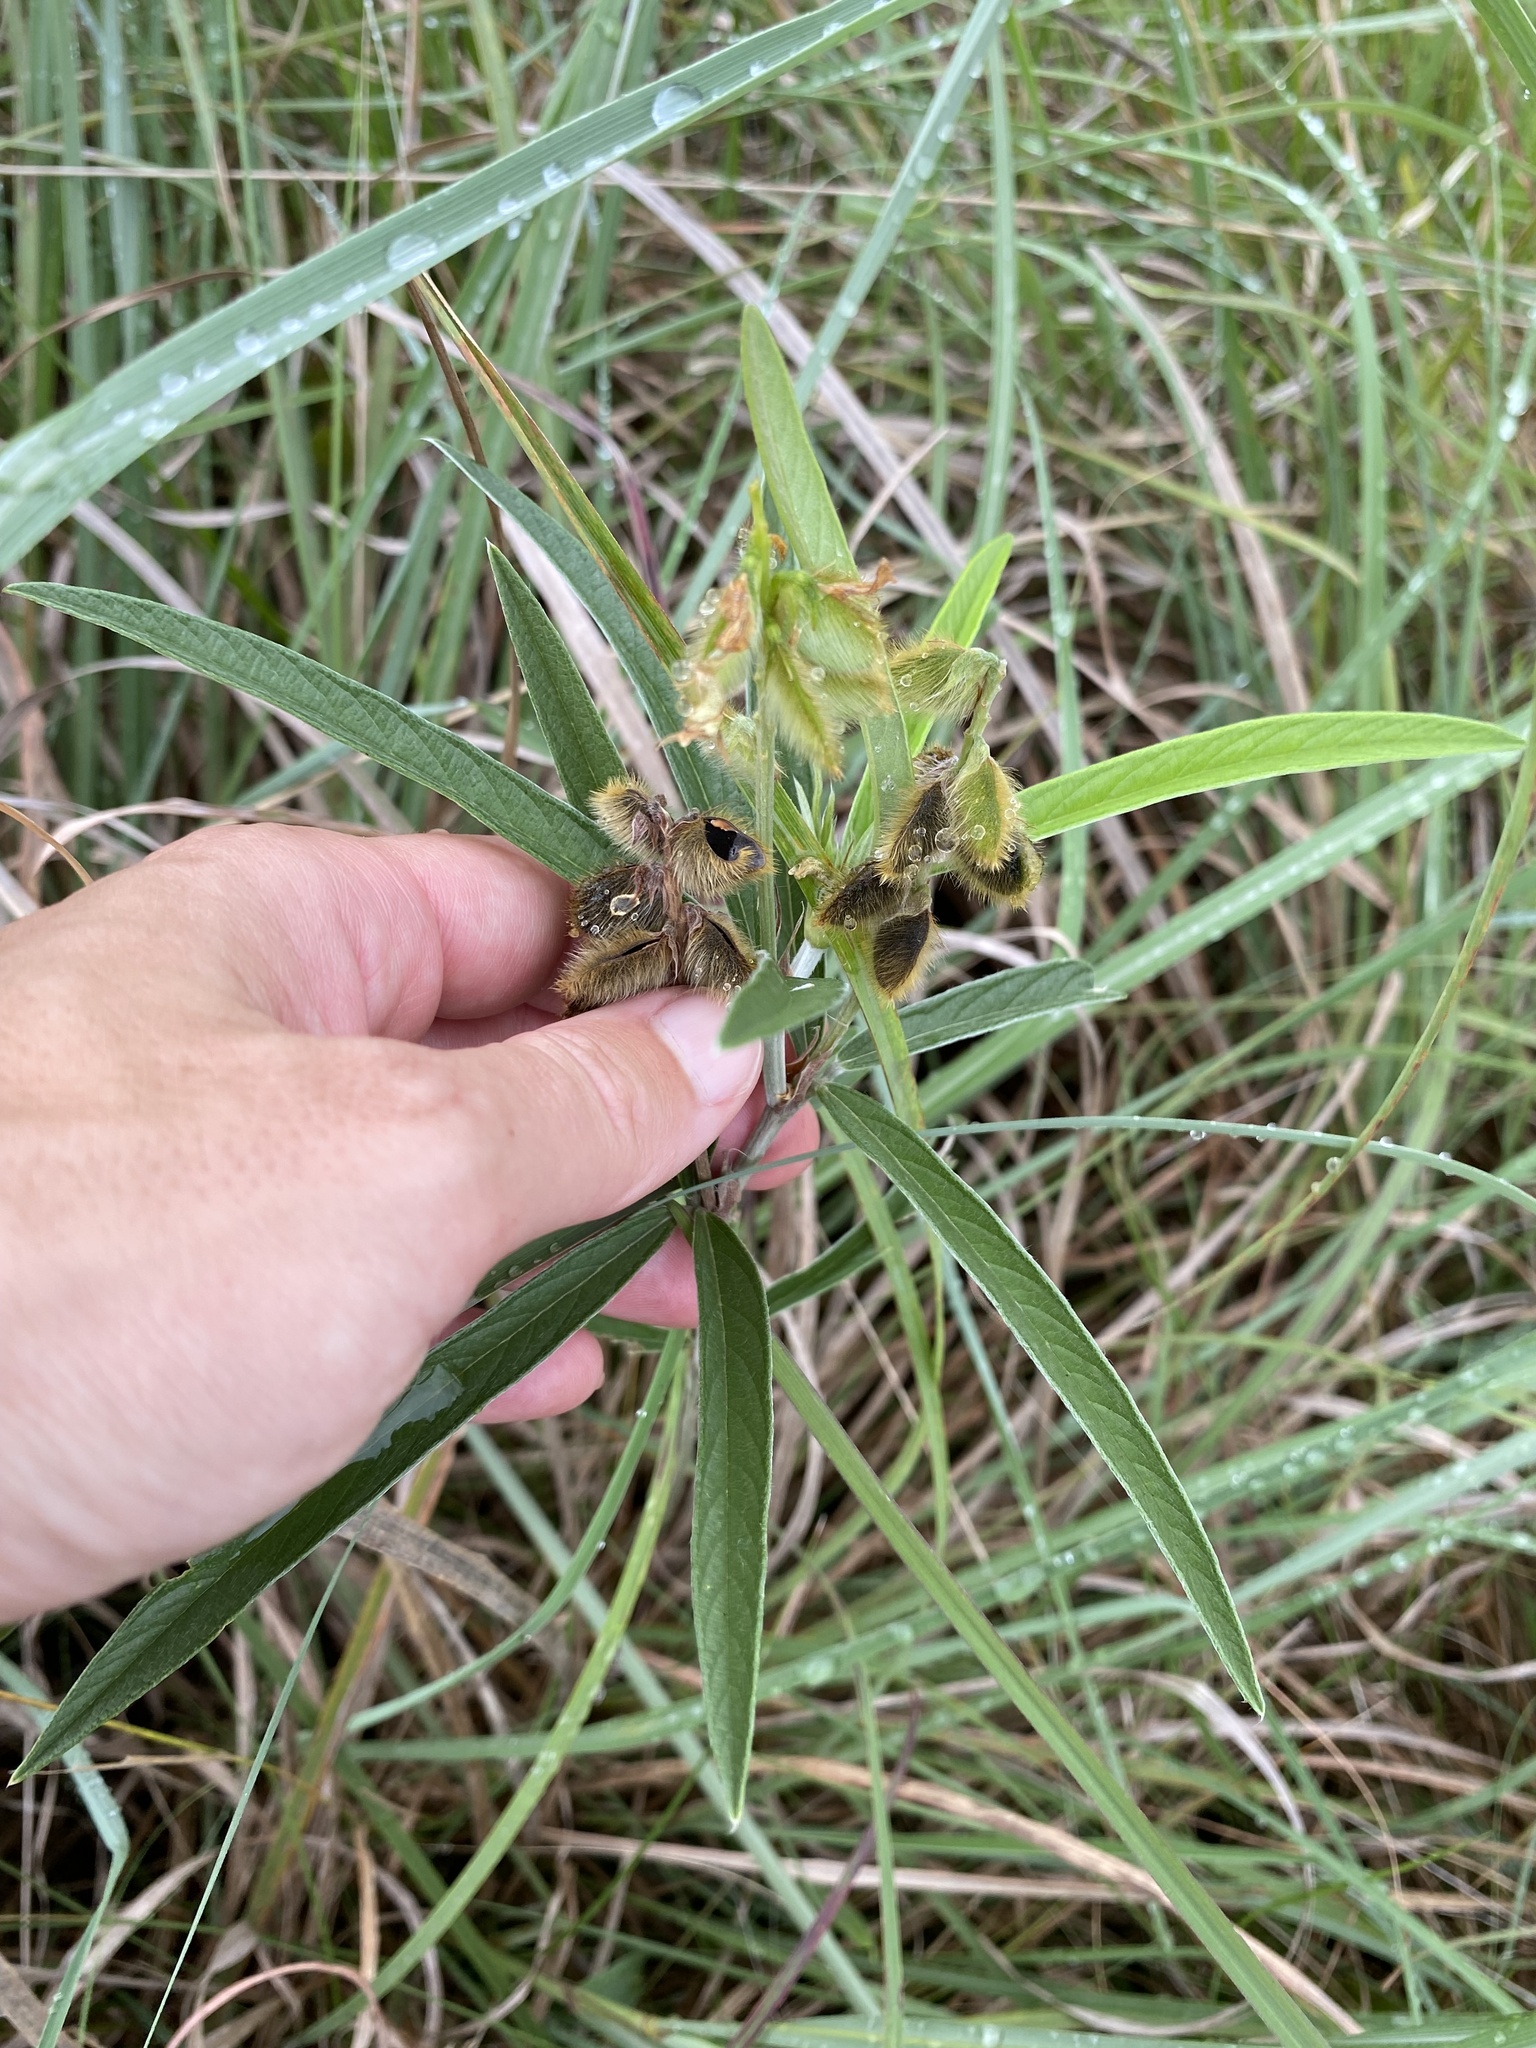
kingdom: Plantae
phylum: Tracheophyta
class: Magnoliopsida
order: Fabales
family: Fabaceae
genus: Eriosema
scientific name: Eriosema salignum
